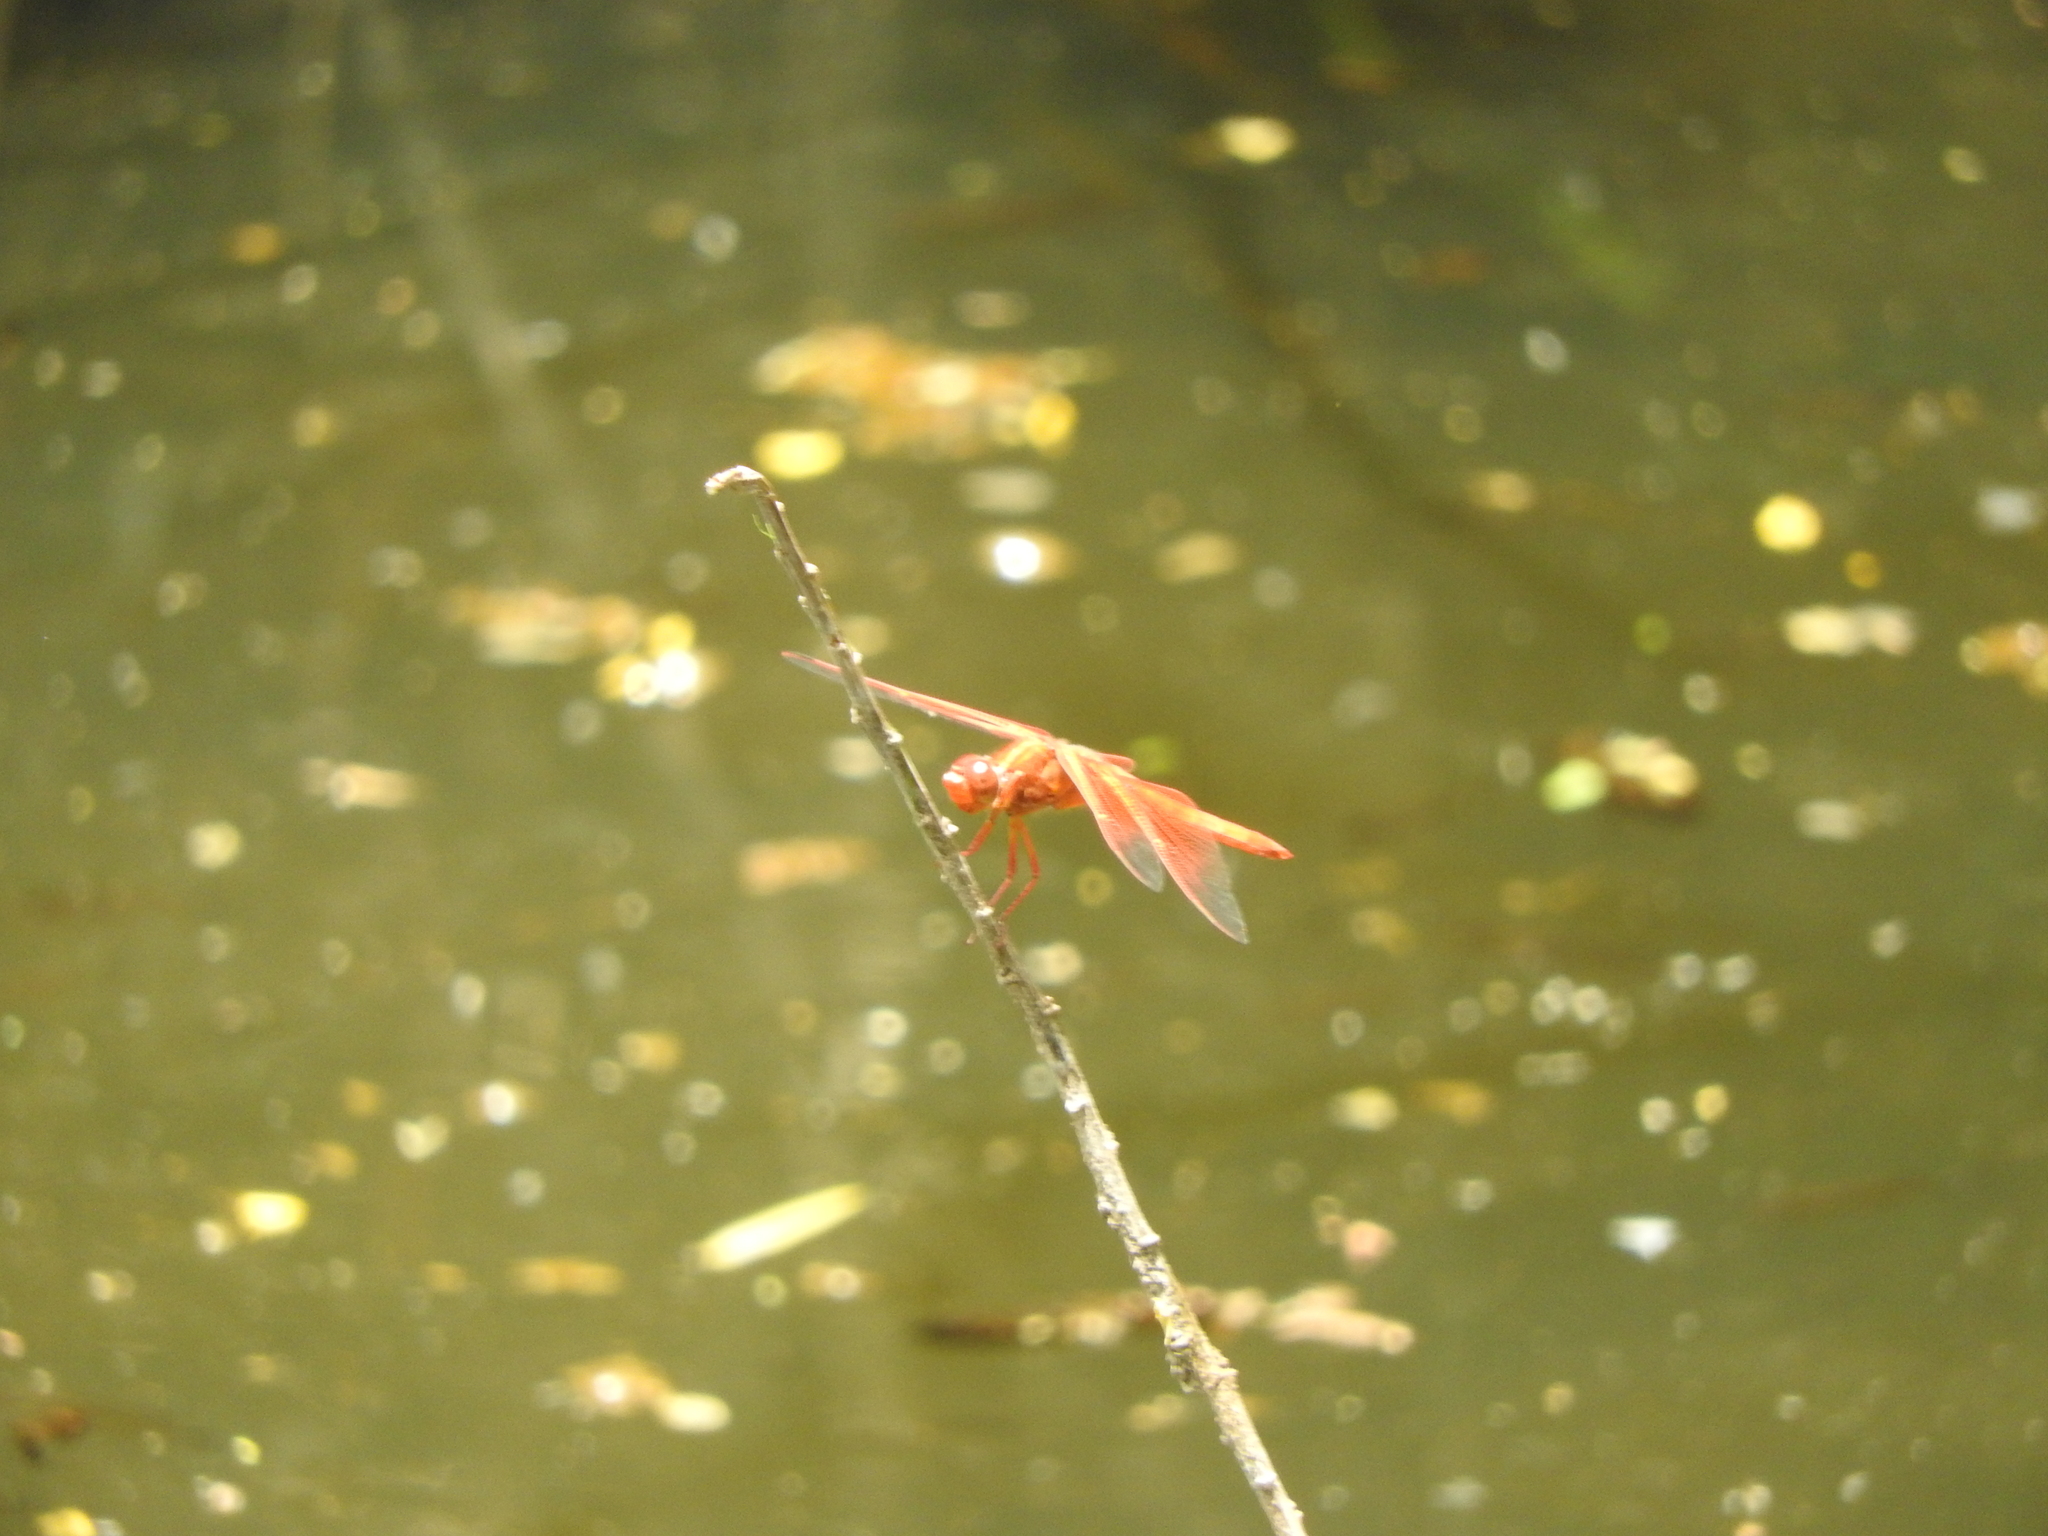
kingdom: Animalia
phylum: Arthropoda
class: Insecta
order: Odonata
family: Libellulidae
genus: Libellula
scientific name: Libellula saturata
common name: Flame skimmer
